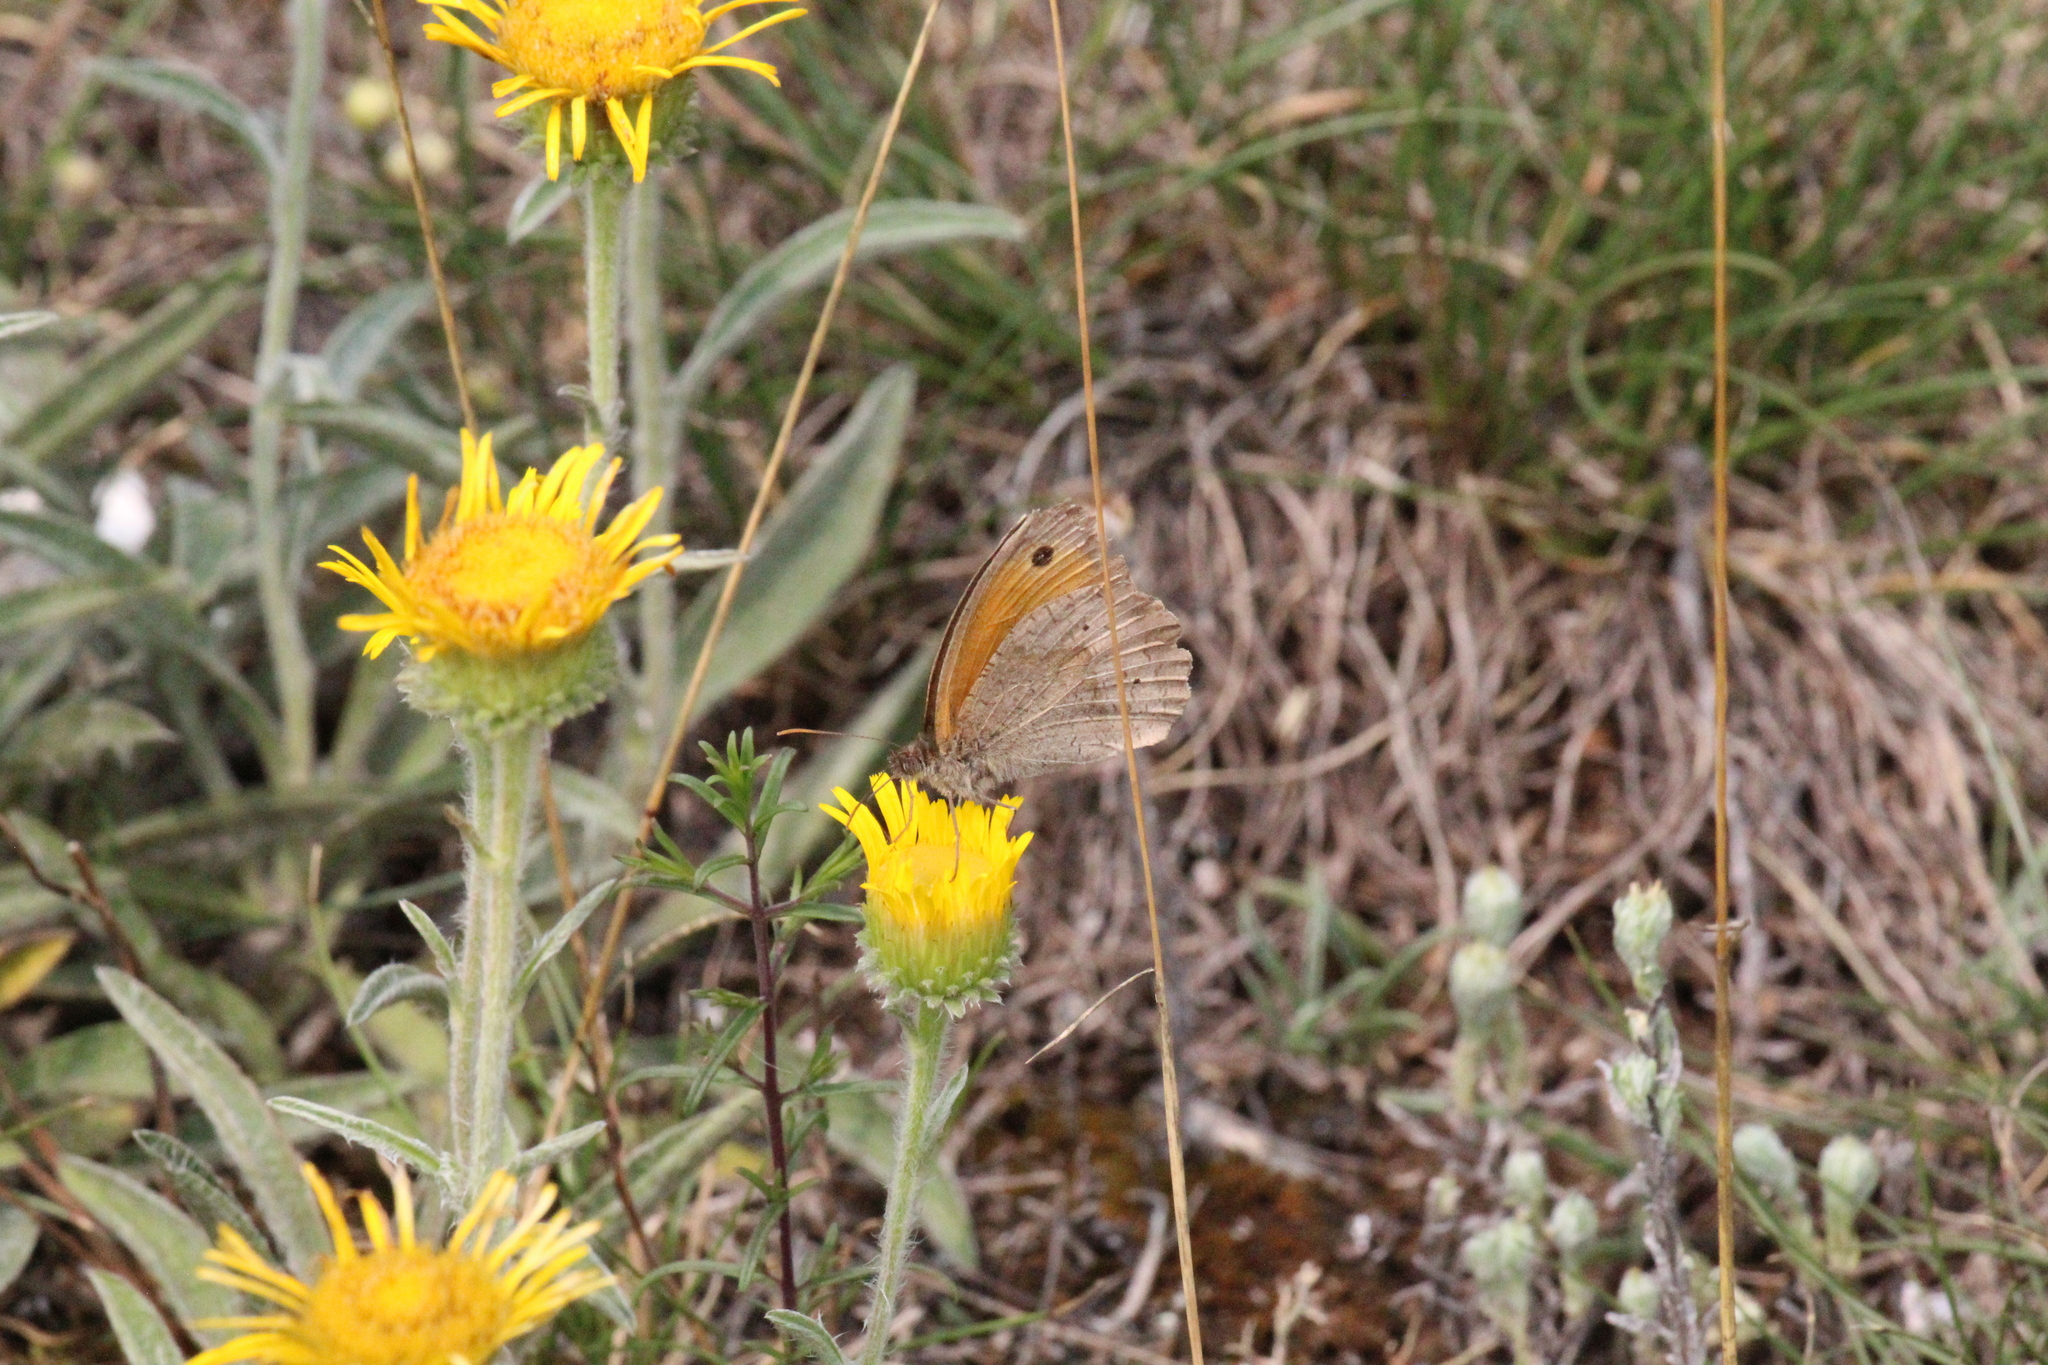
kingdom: Animalia
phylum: Arthropoda
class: Insecta
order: Lepidoptera
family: Nymphalidae
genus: Maniola
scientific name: Maniola jurtina
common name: Meadow brown
